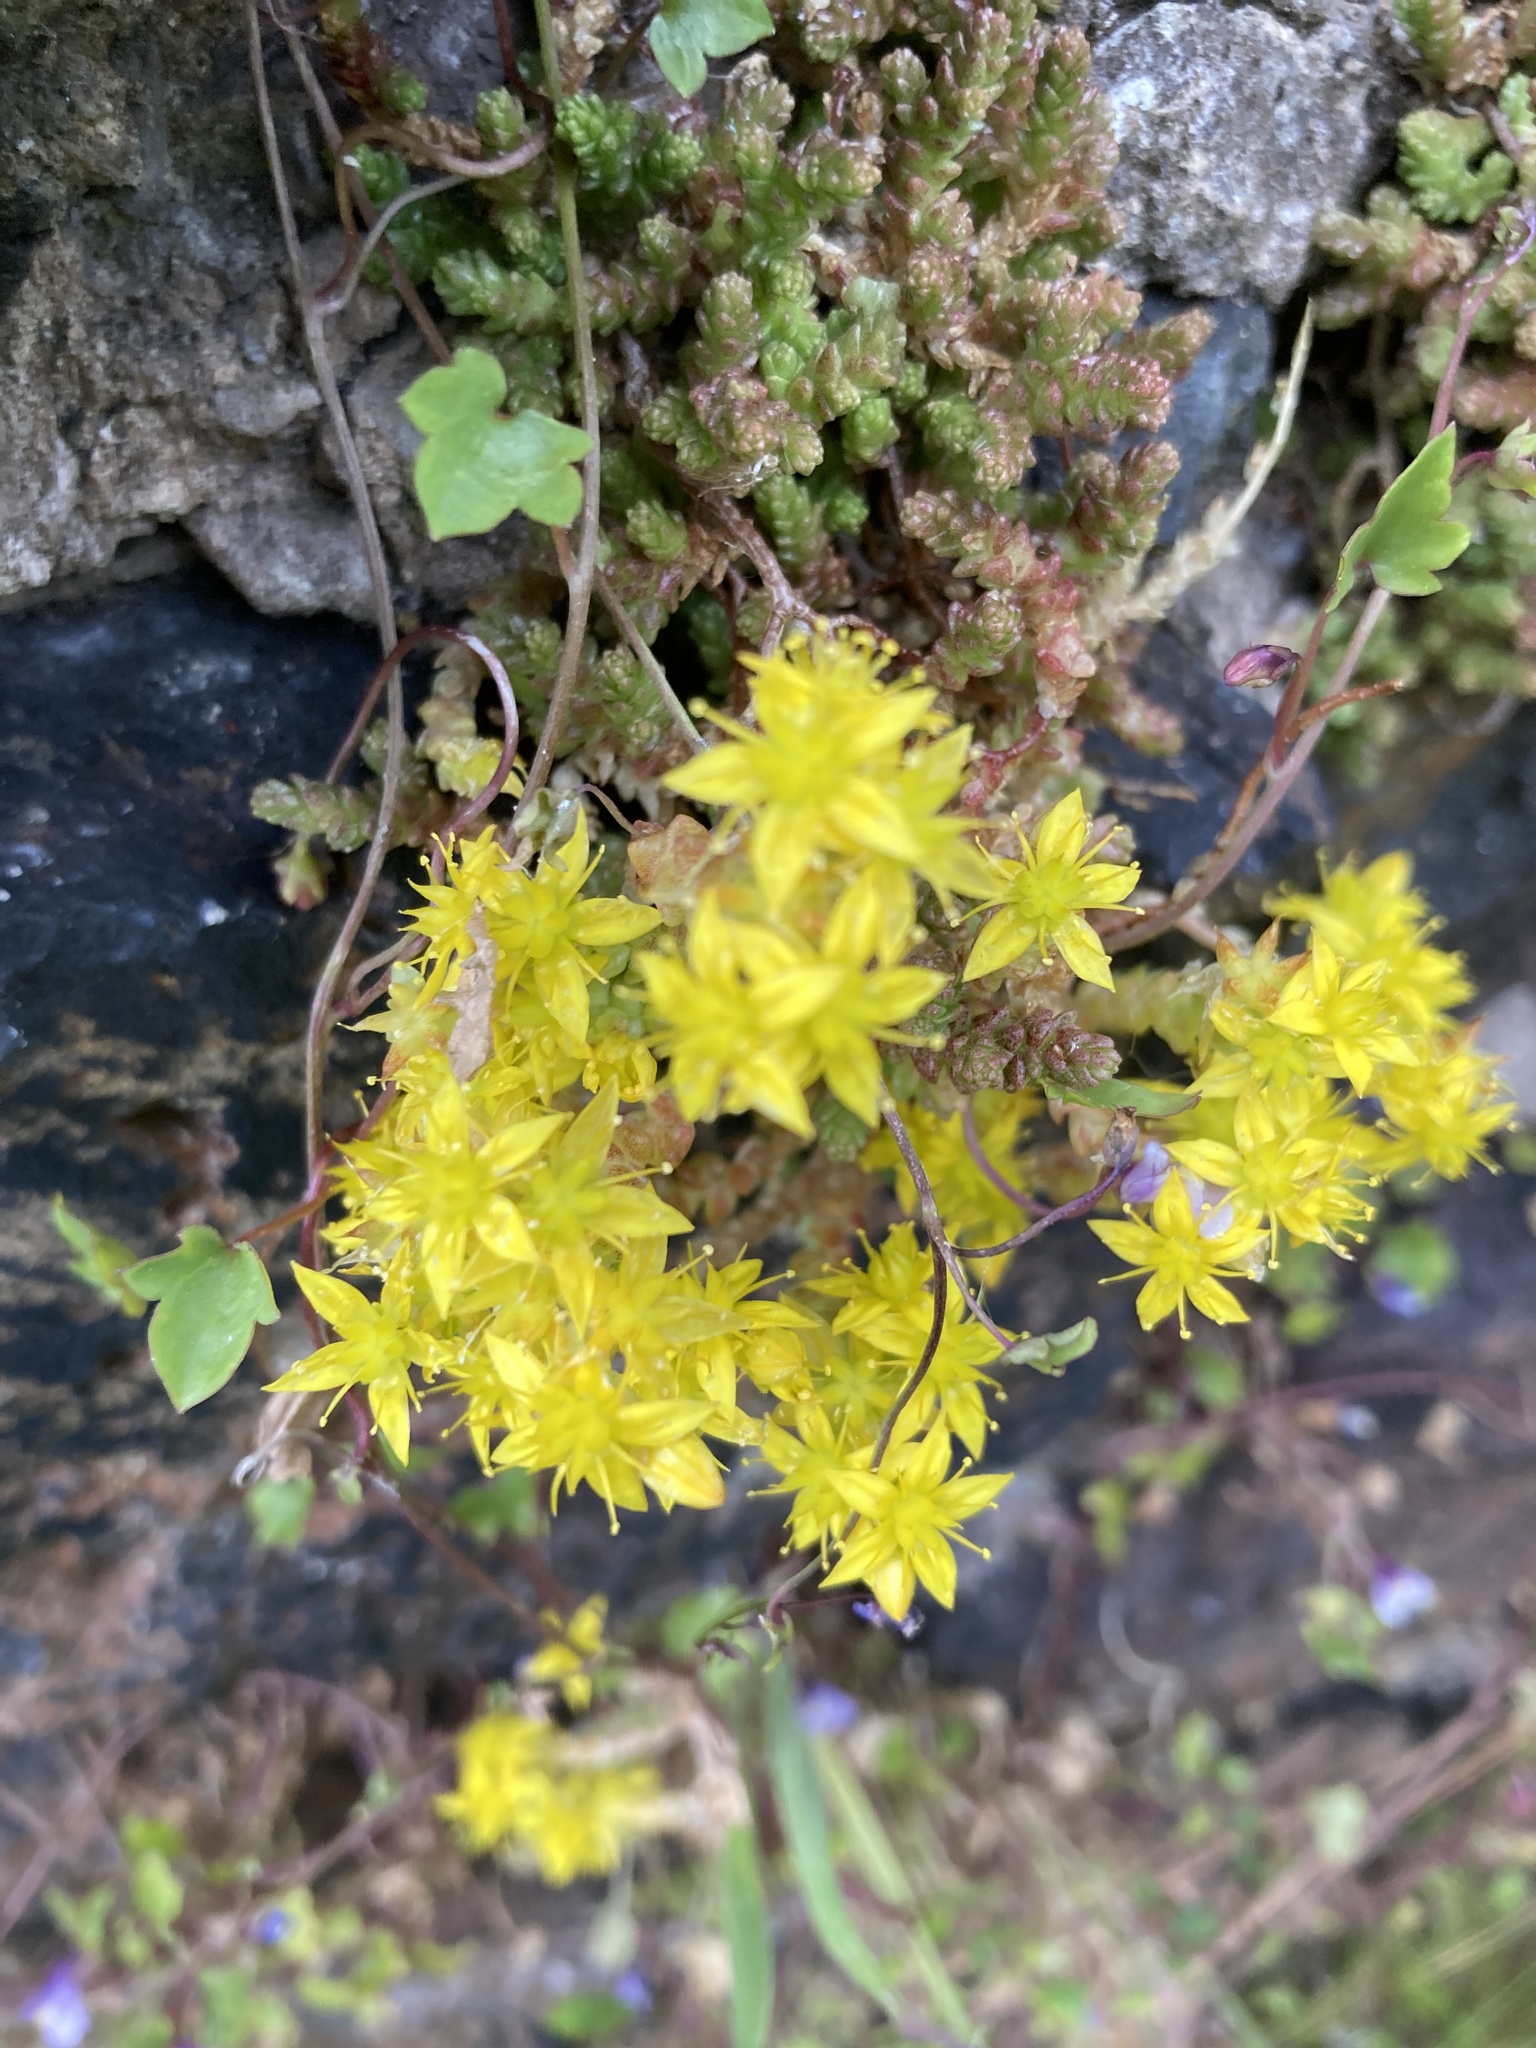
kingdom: Plantae
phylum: Tracheophyta
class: Magnoliopsida
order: Saxifragales
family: Crassulaceae
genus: Sedum
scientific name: Sedum acre
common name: Biting stonecrop
